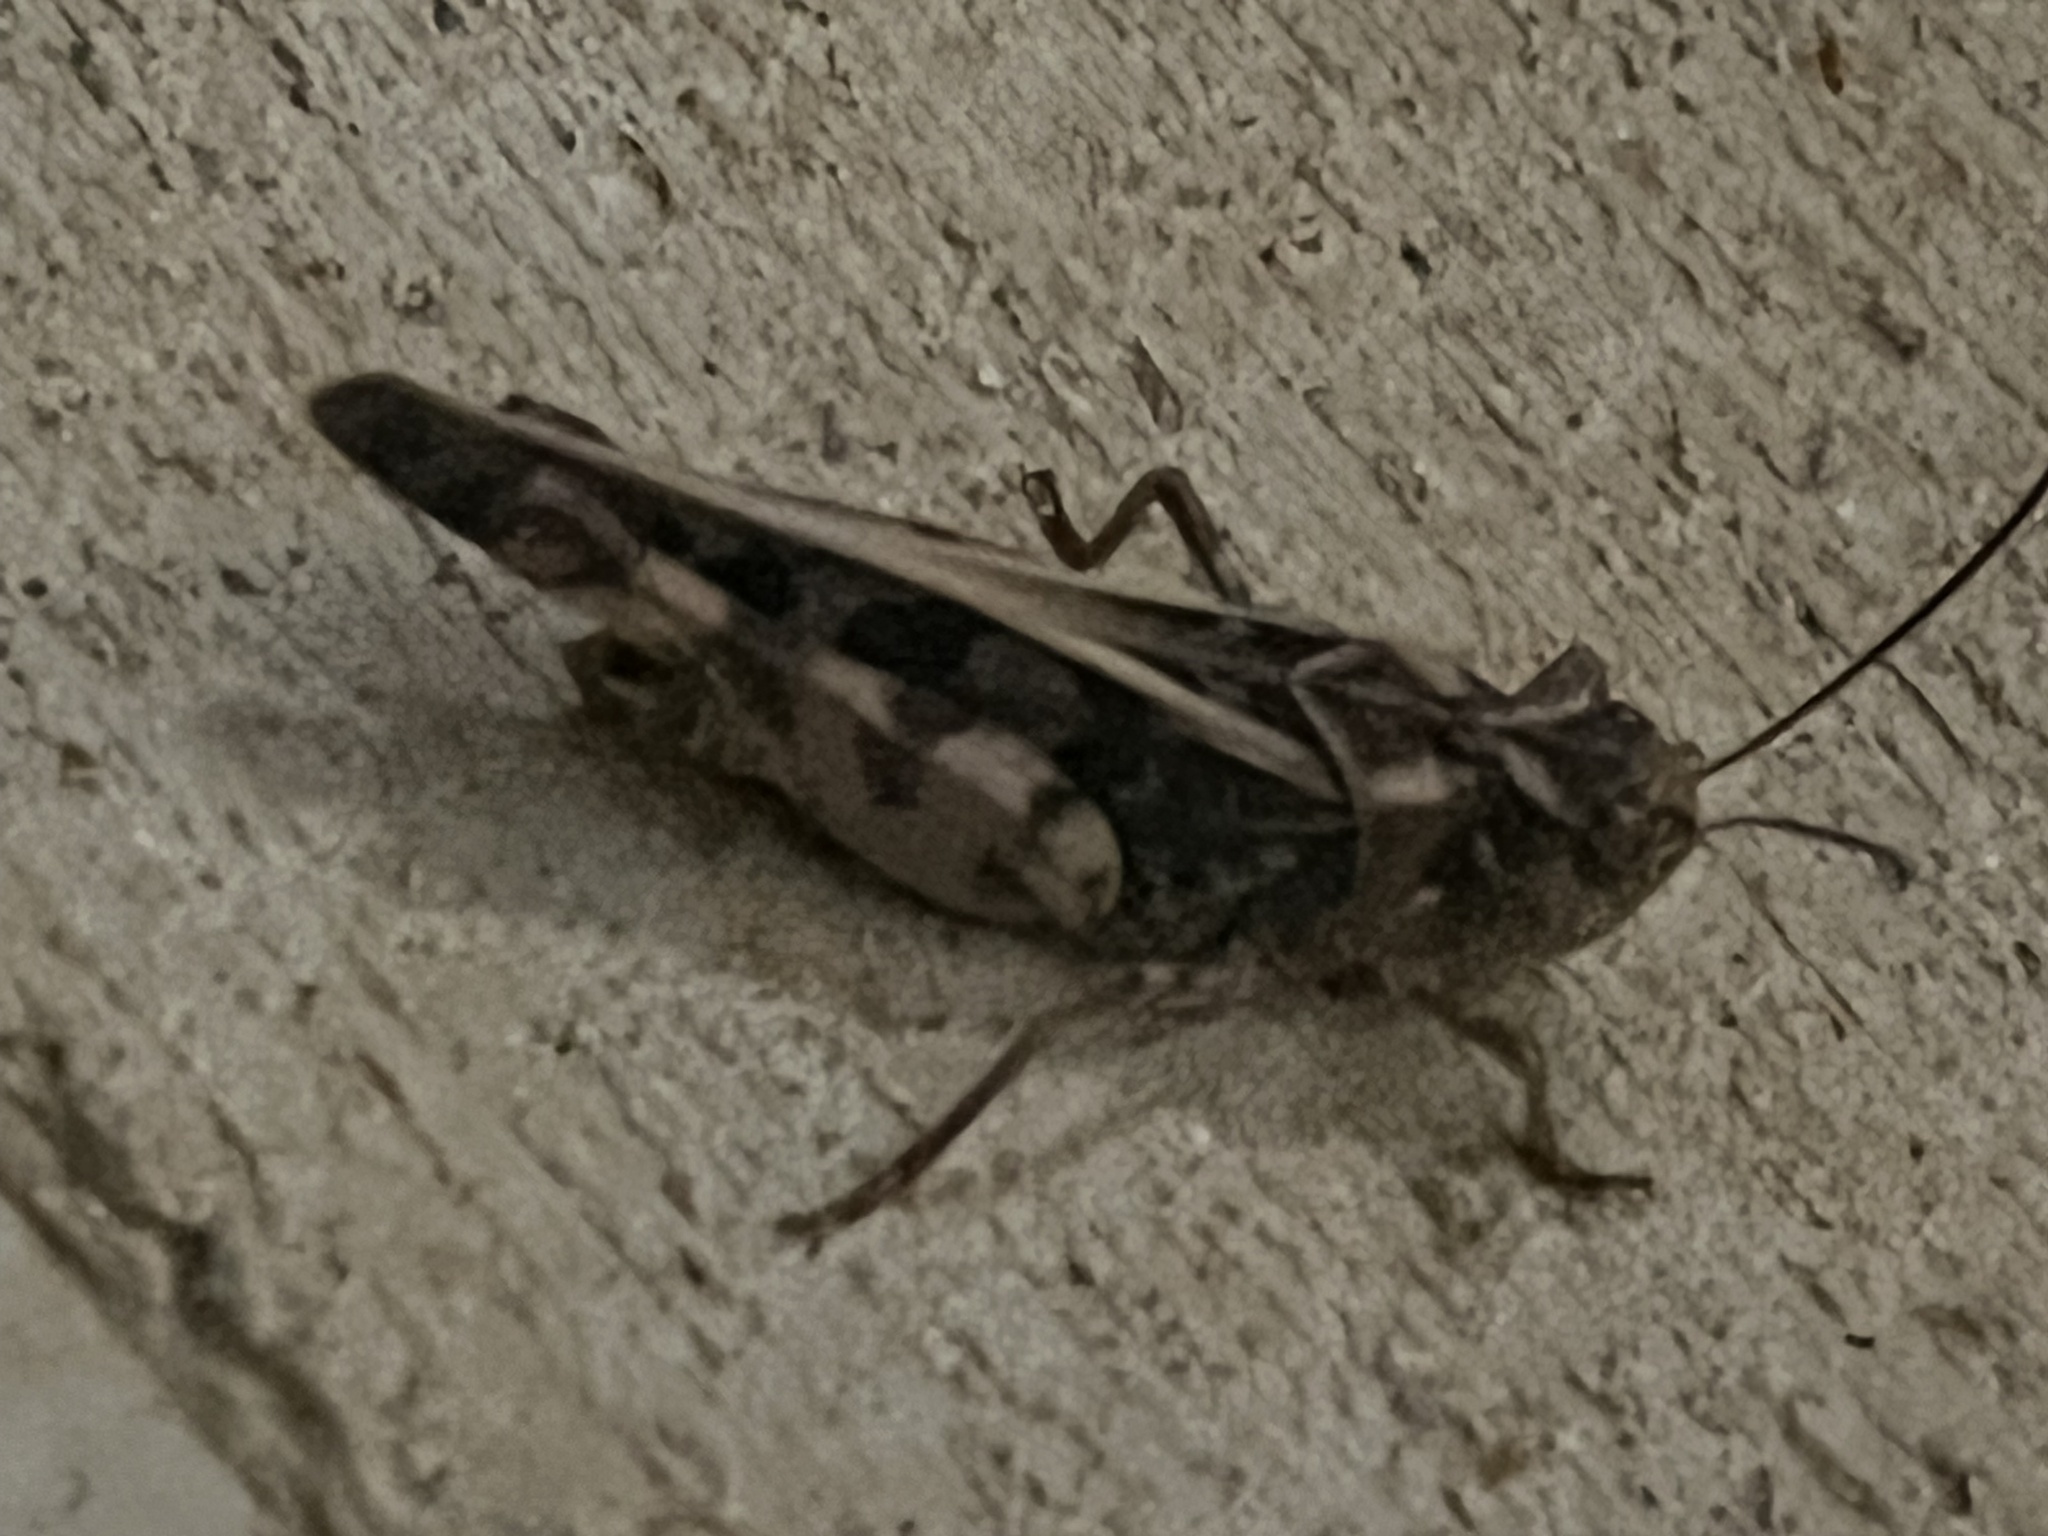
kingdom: Animalia
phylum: Arthropoda
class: Insecta
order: Orthoptera
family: Acrididae
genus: Hippiscus
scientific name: Hippiscus ocelote
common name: Wrinkled grasshopper
